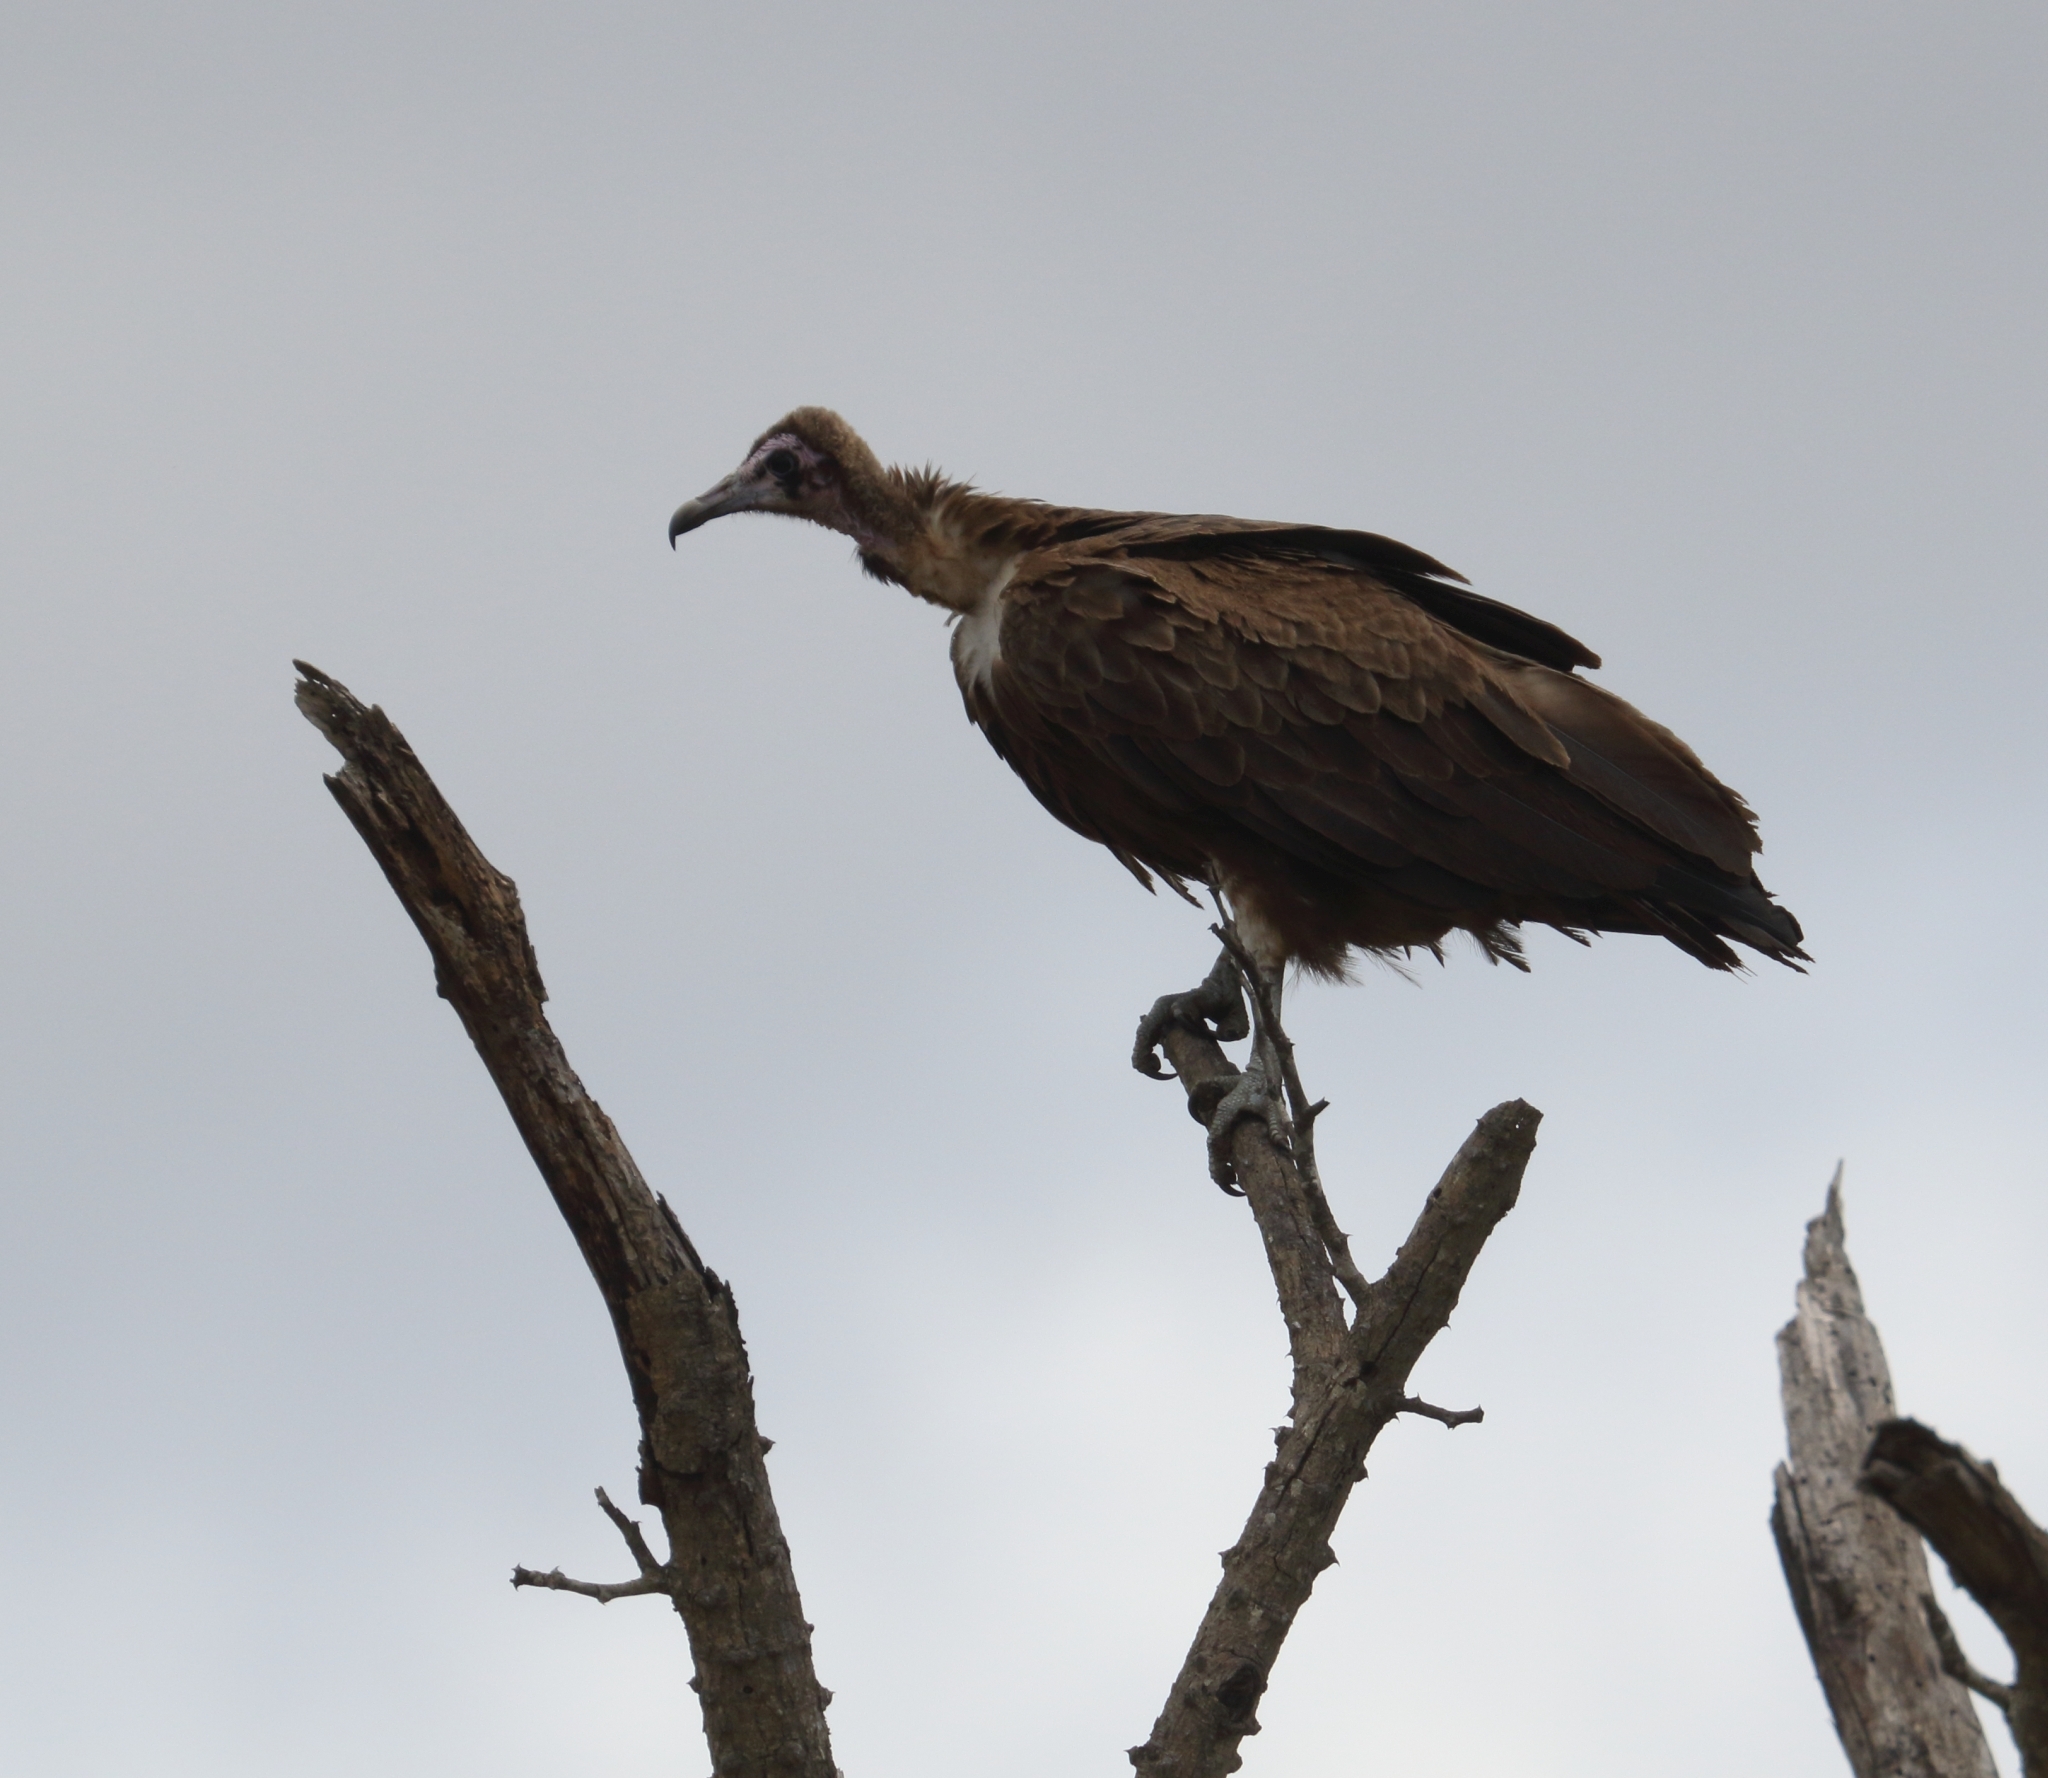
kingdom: Animalia
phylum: Chordata
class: Aves
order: Accipitriformes
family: Accipitridae
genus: Necrosyrtes
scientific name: Necrosyrtes monachus
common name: Hooded vulture
